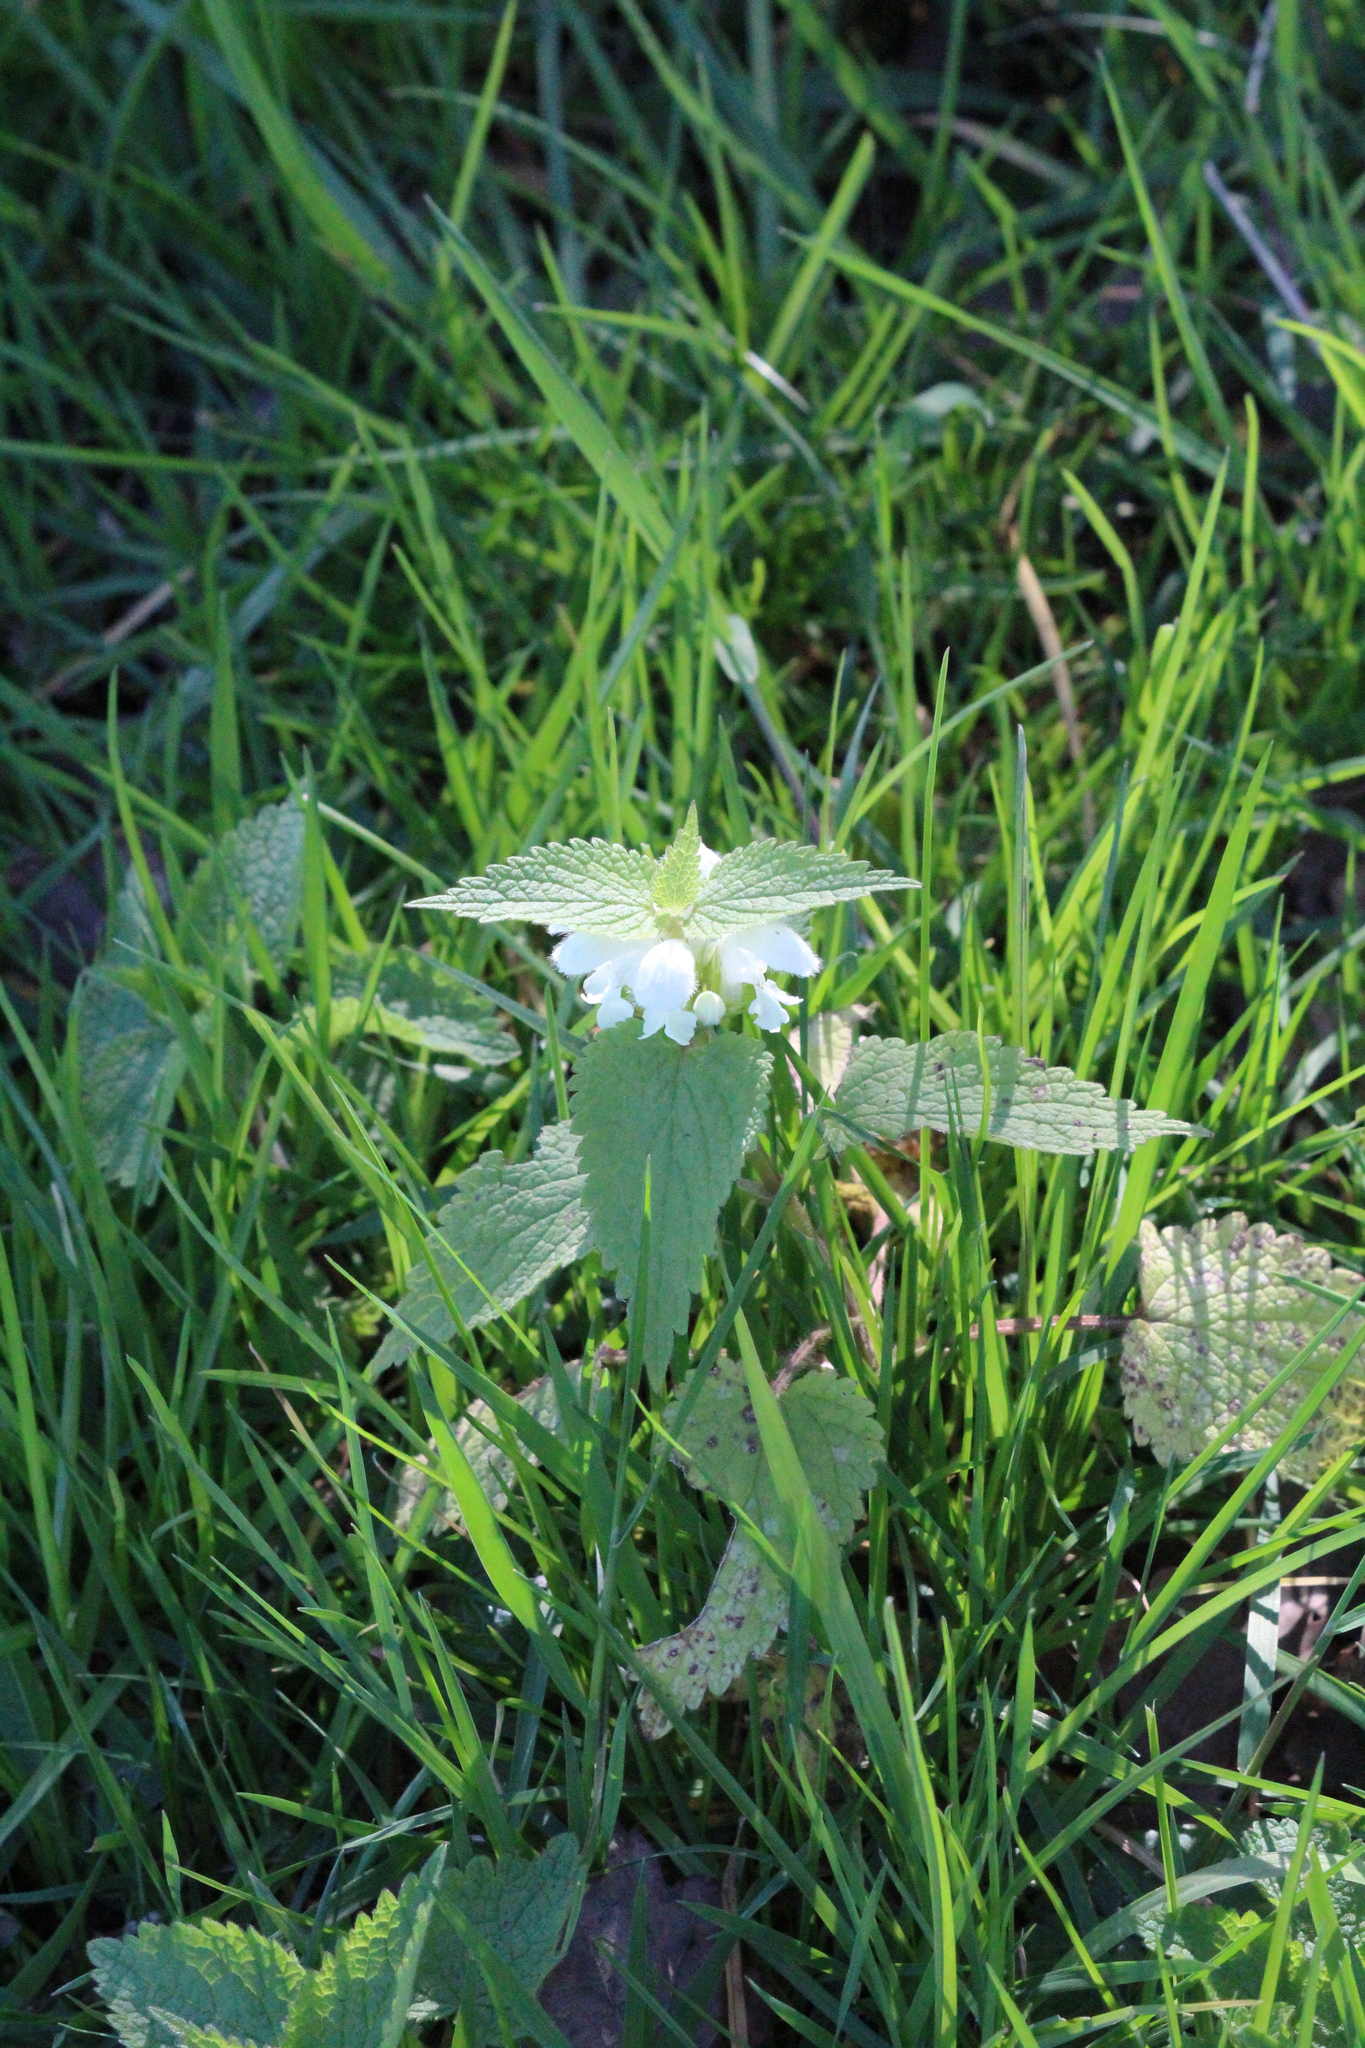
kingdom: Plantae
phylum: Tracheophyta
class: Magnoliopsida
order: Lamiales
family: Lamiaceae
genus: Lamium
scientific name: Lamium album
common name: White dead-nettle
